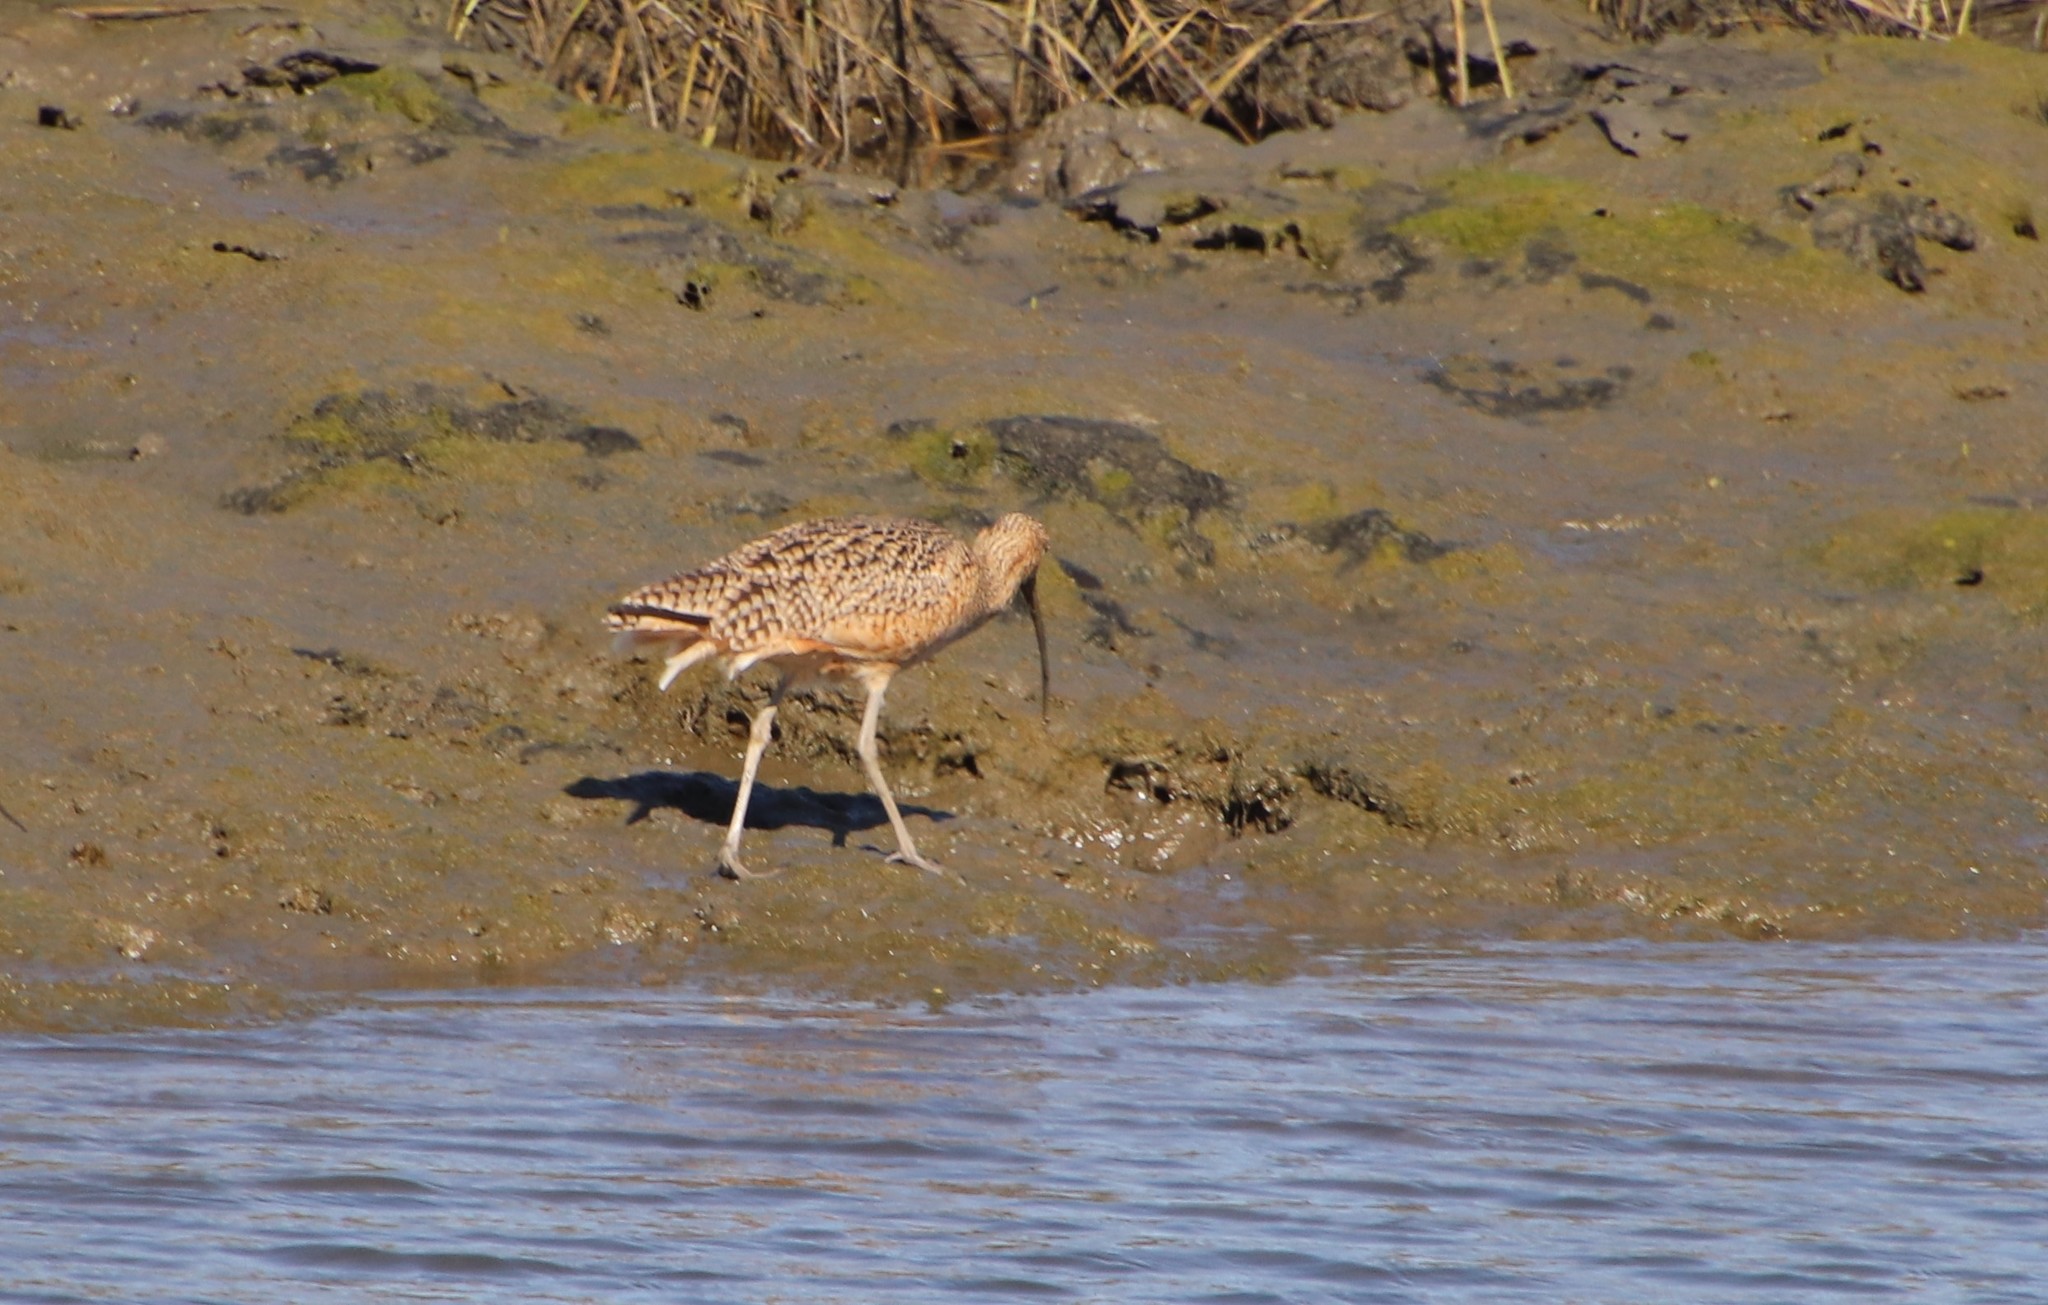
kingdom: Animalia
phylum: Chordata
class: Aves
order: Charadriiformes
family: Scolopacidae
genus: Numenius
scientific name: Numenius americanus
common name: Long-billed curlew
